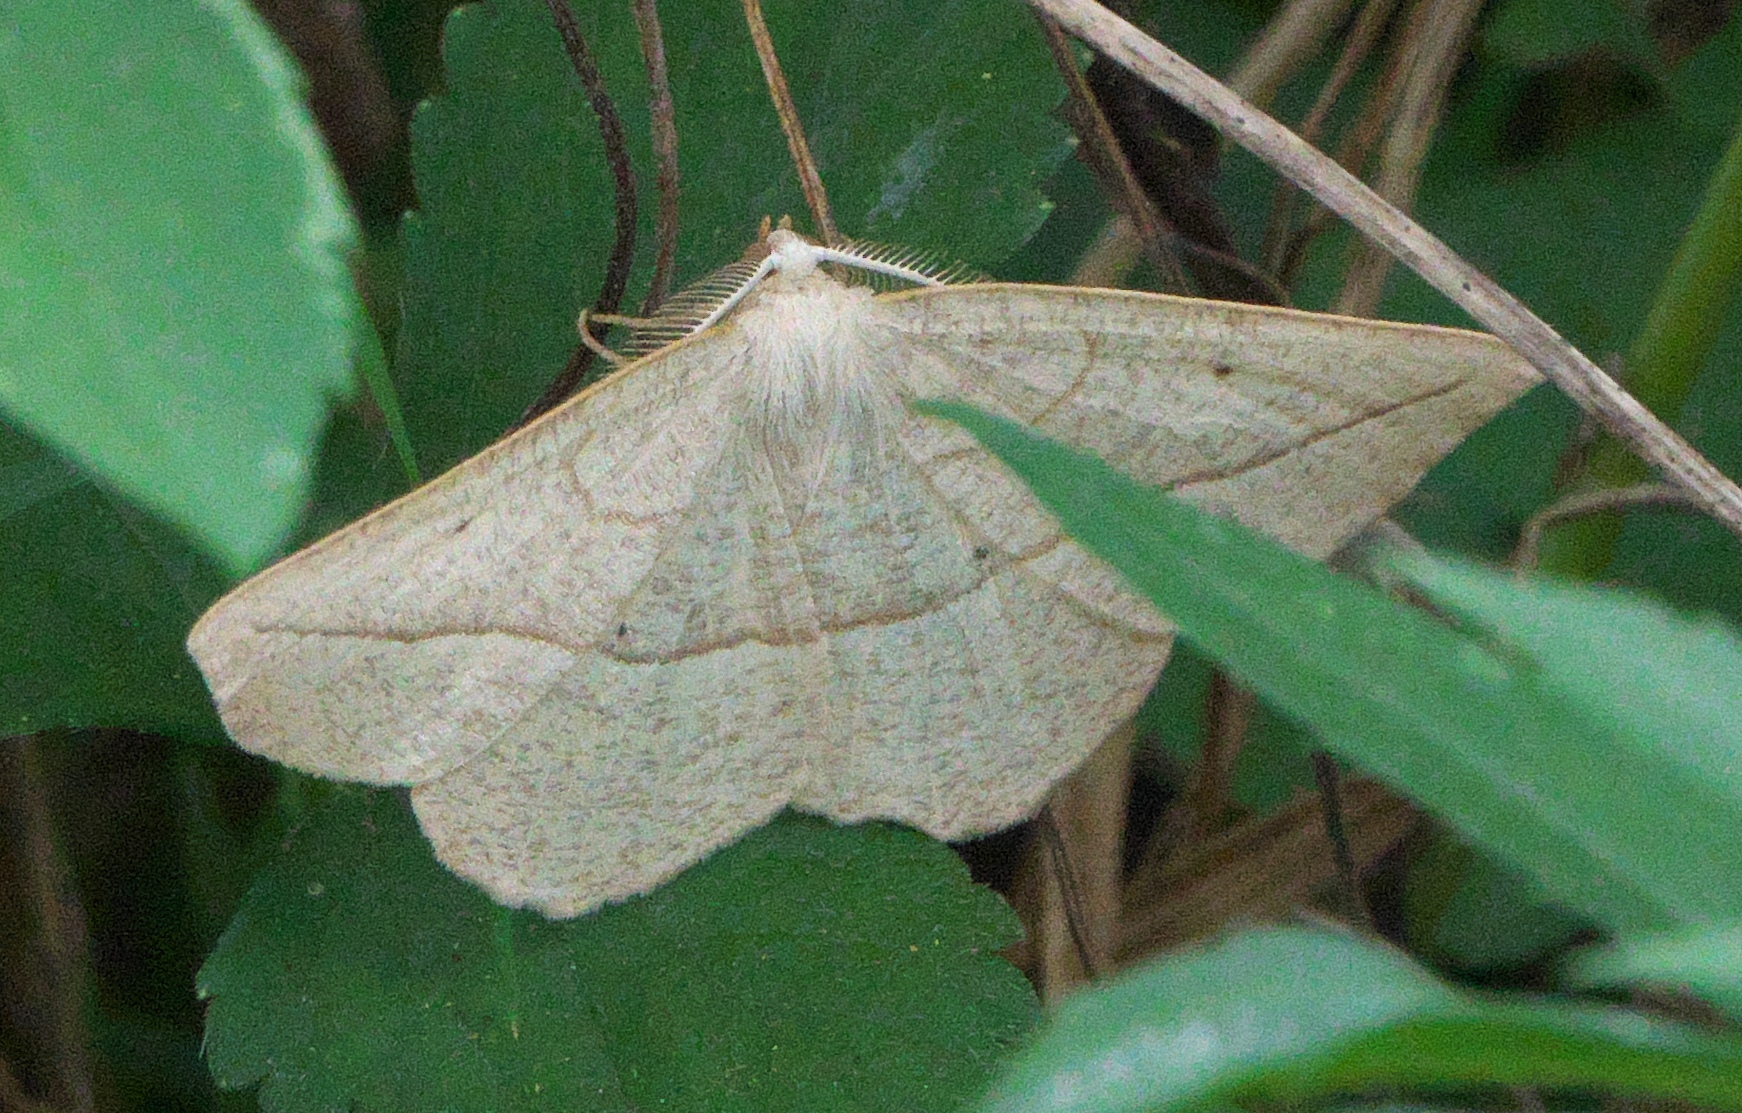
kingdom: Animalia
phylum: Arthropoda
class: Insecta
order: Lepidoptera
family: Geometridae
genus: Eusarca
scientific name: Eusarca confusaria
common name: Confused eusarca
